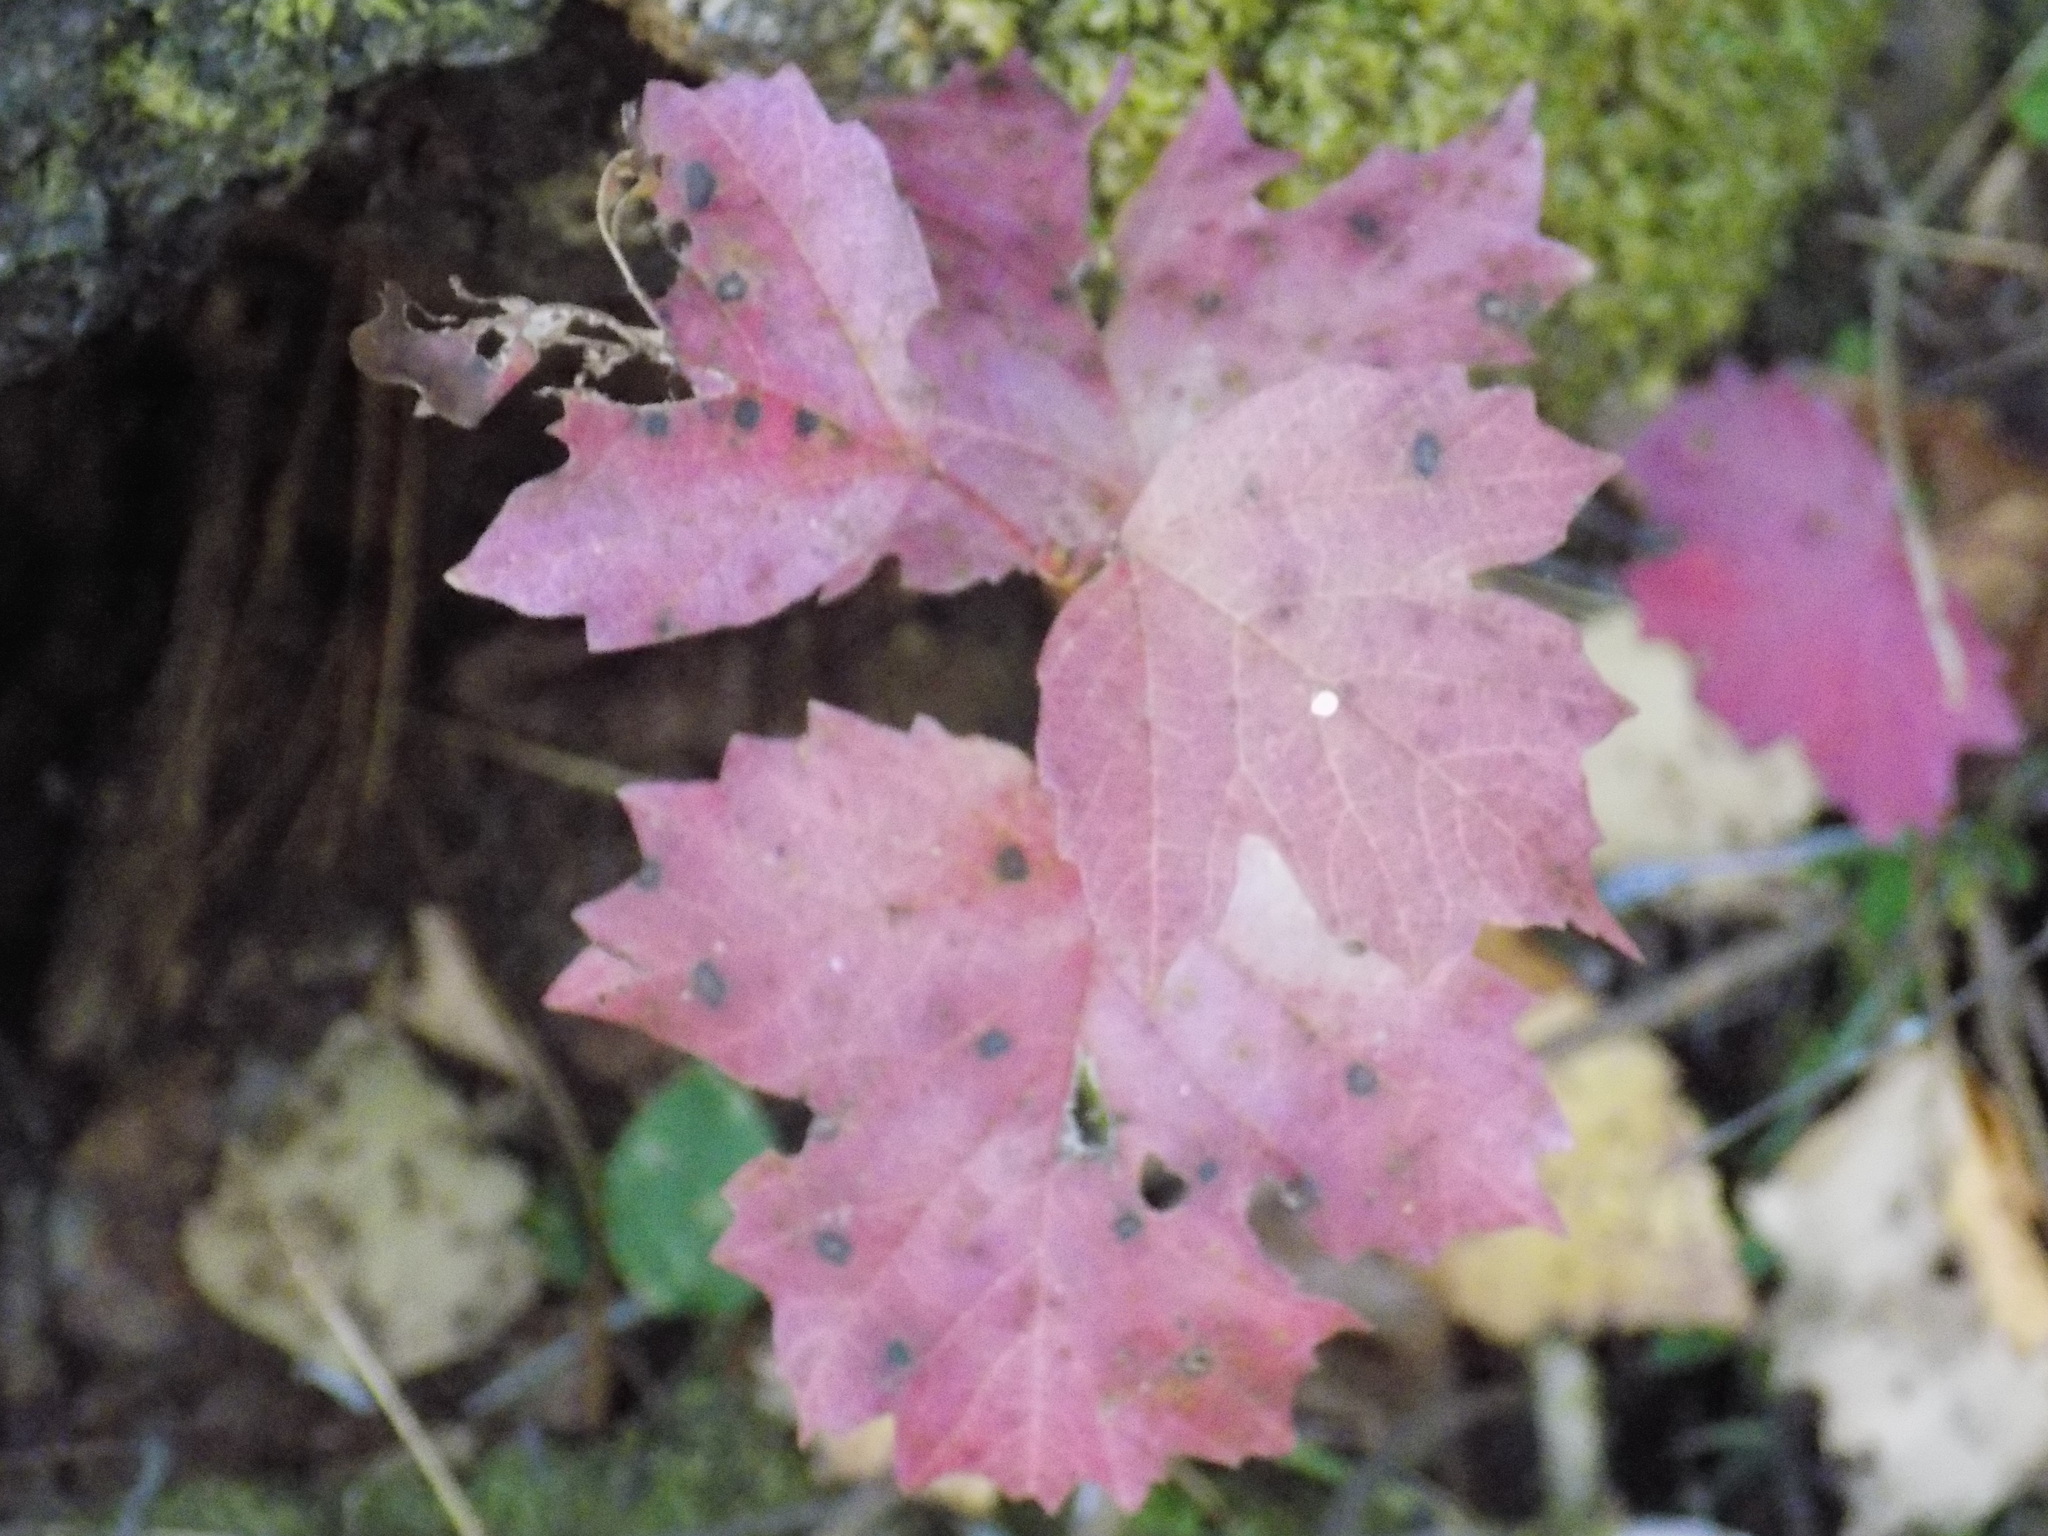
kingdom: Plantae
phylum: Tracheophyta
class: Magnoliopsida
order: Dipsacales
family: Viburnaceae
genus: Viburnum
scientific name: Viburnum opulus
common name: Guelder-rose
